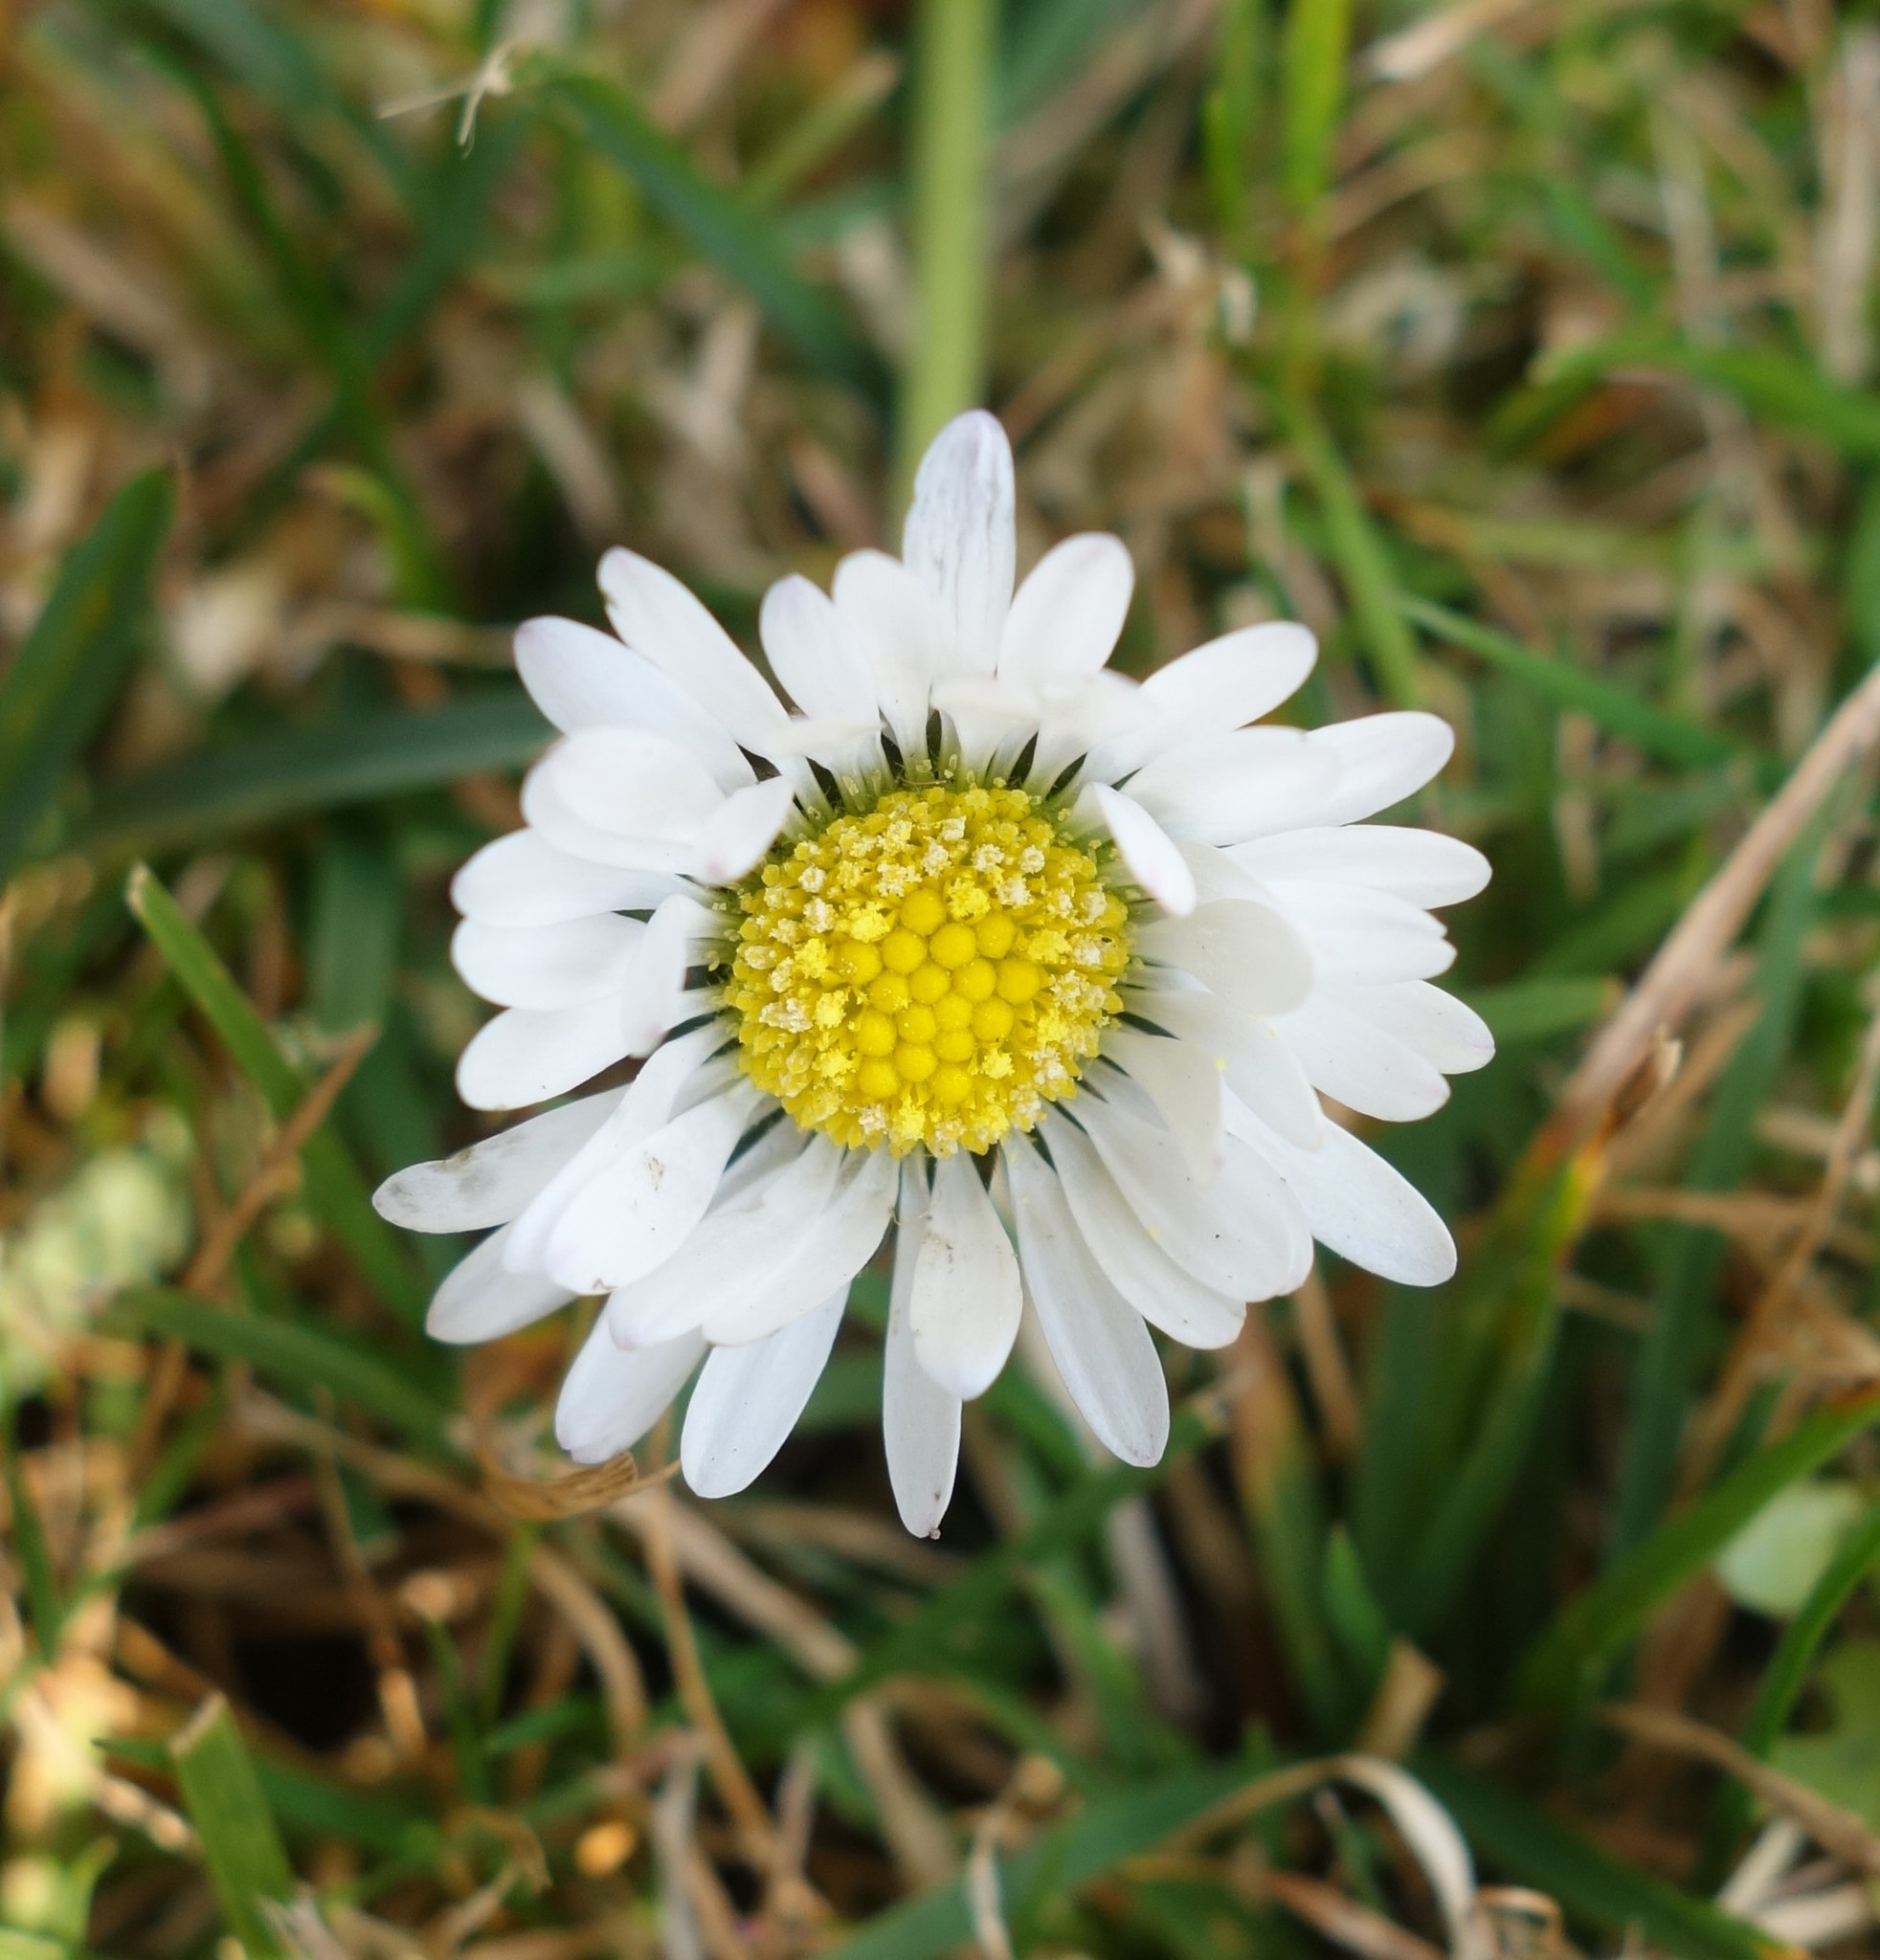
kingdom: Plantae
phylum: Tracheophyta
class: Magnoliopsida
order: Asterales
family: Asteraceae
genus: Bellis
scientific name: Bellis perennis
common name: Lawndaisy
